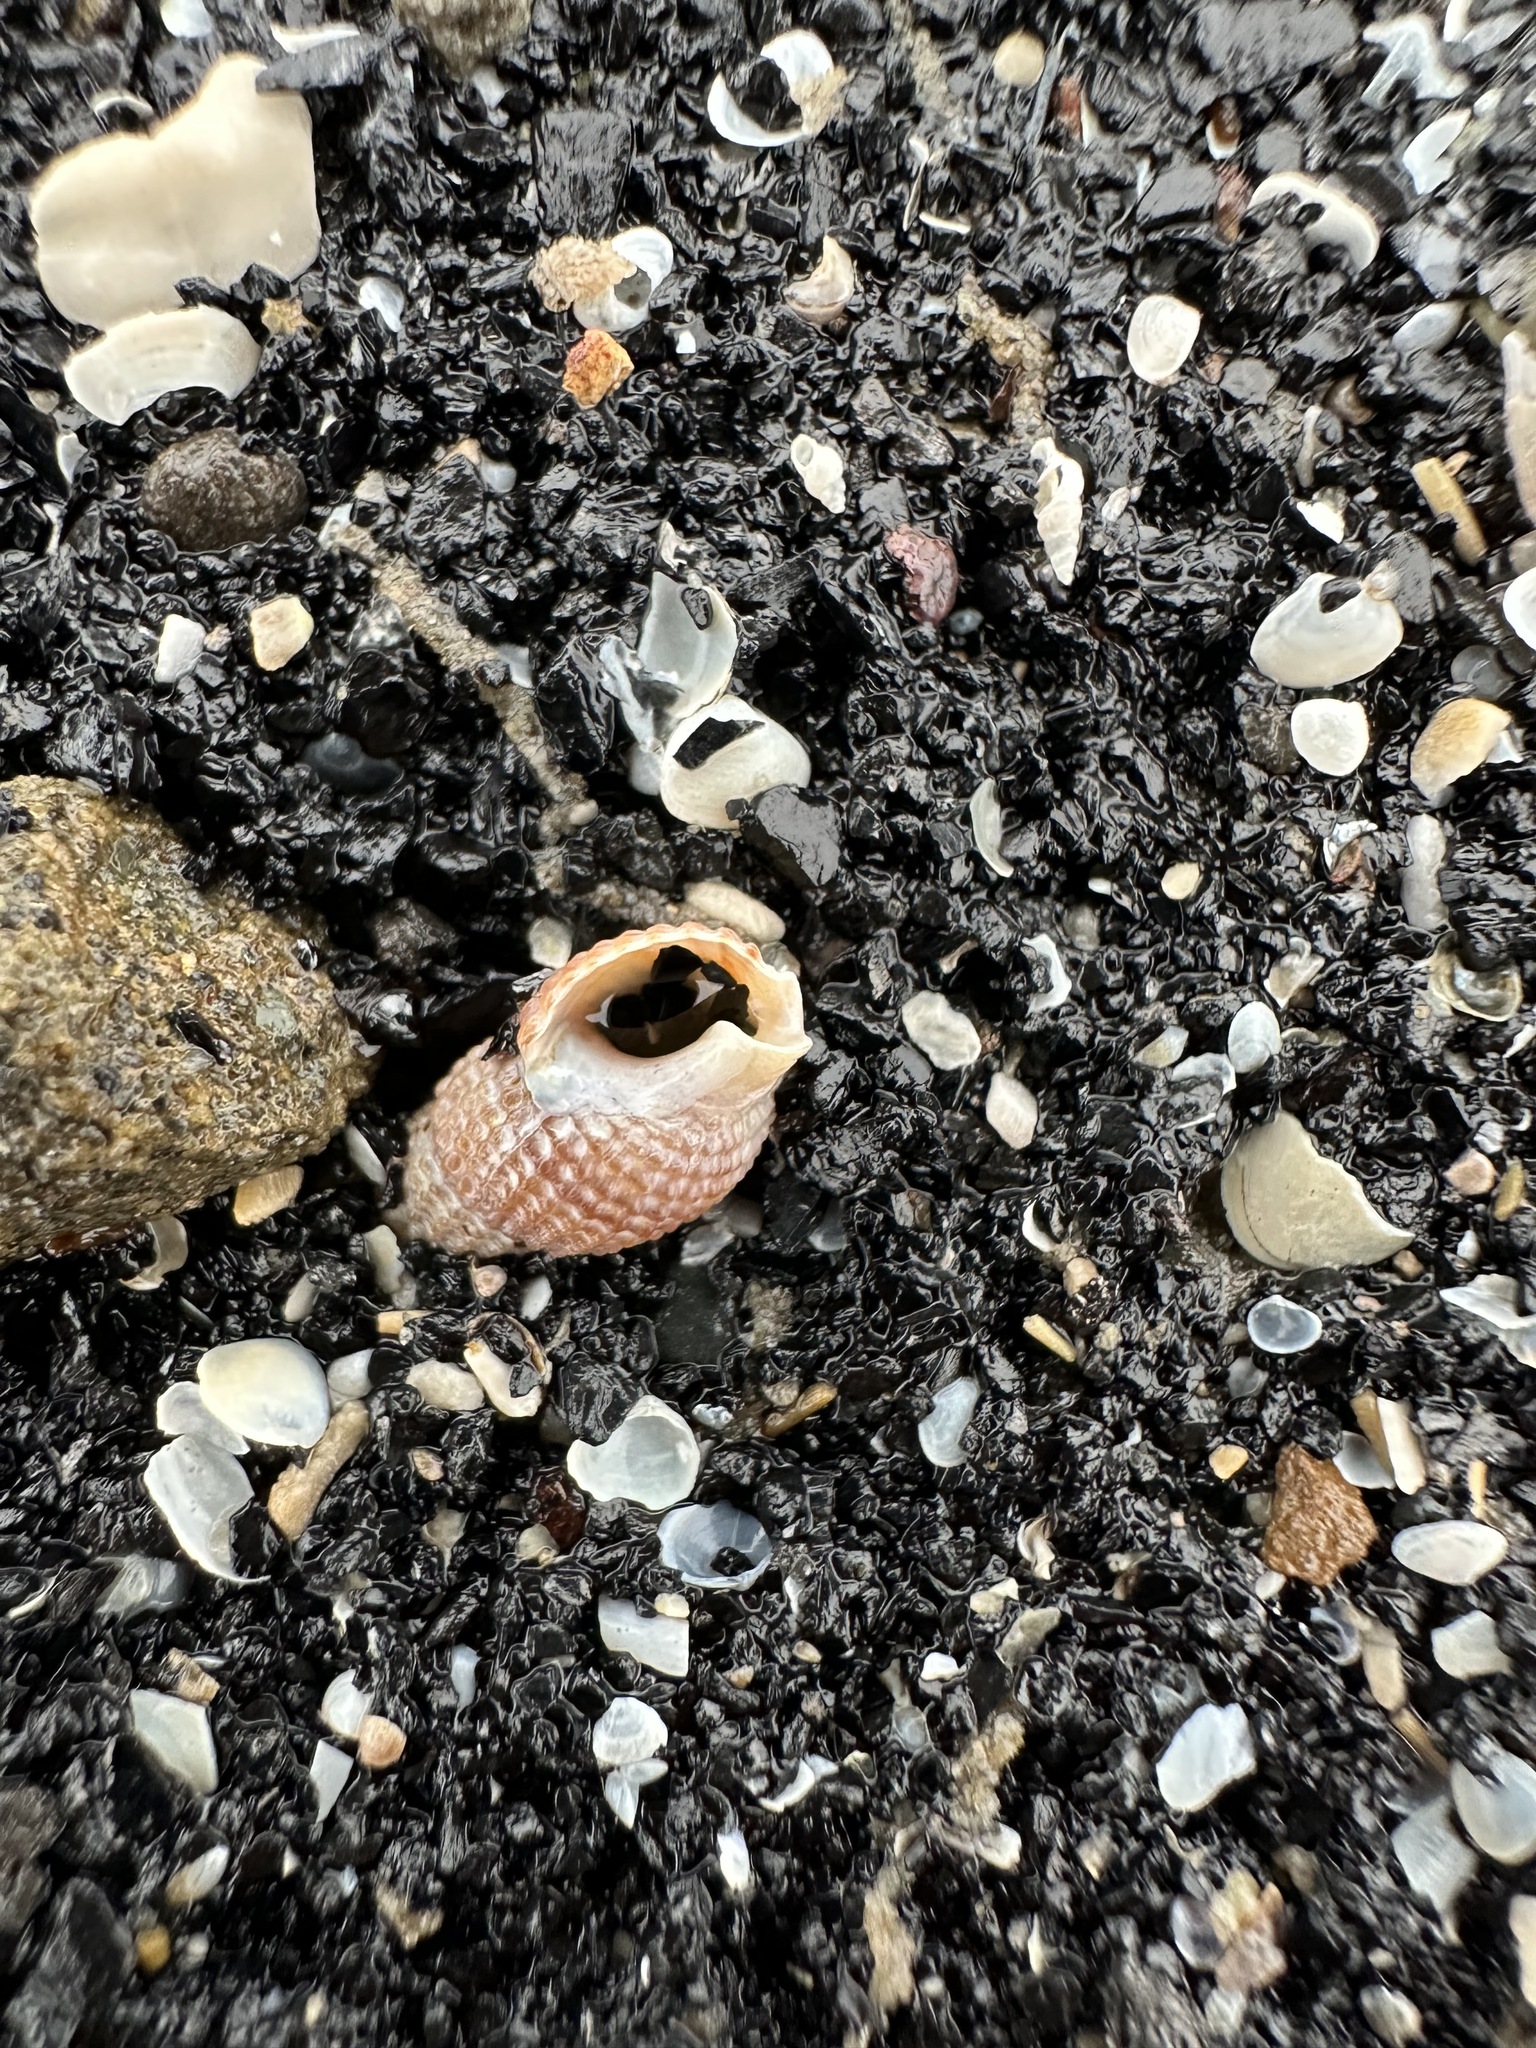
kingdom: Animalia
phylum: Mollusca
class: Gastropoda
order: Neogastropoda
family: Nassariidae
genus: Ilyanassa
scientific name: Ilyanassa trivittata
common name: Three-line mudsnail
